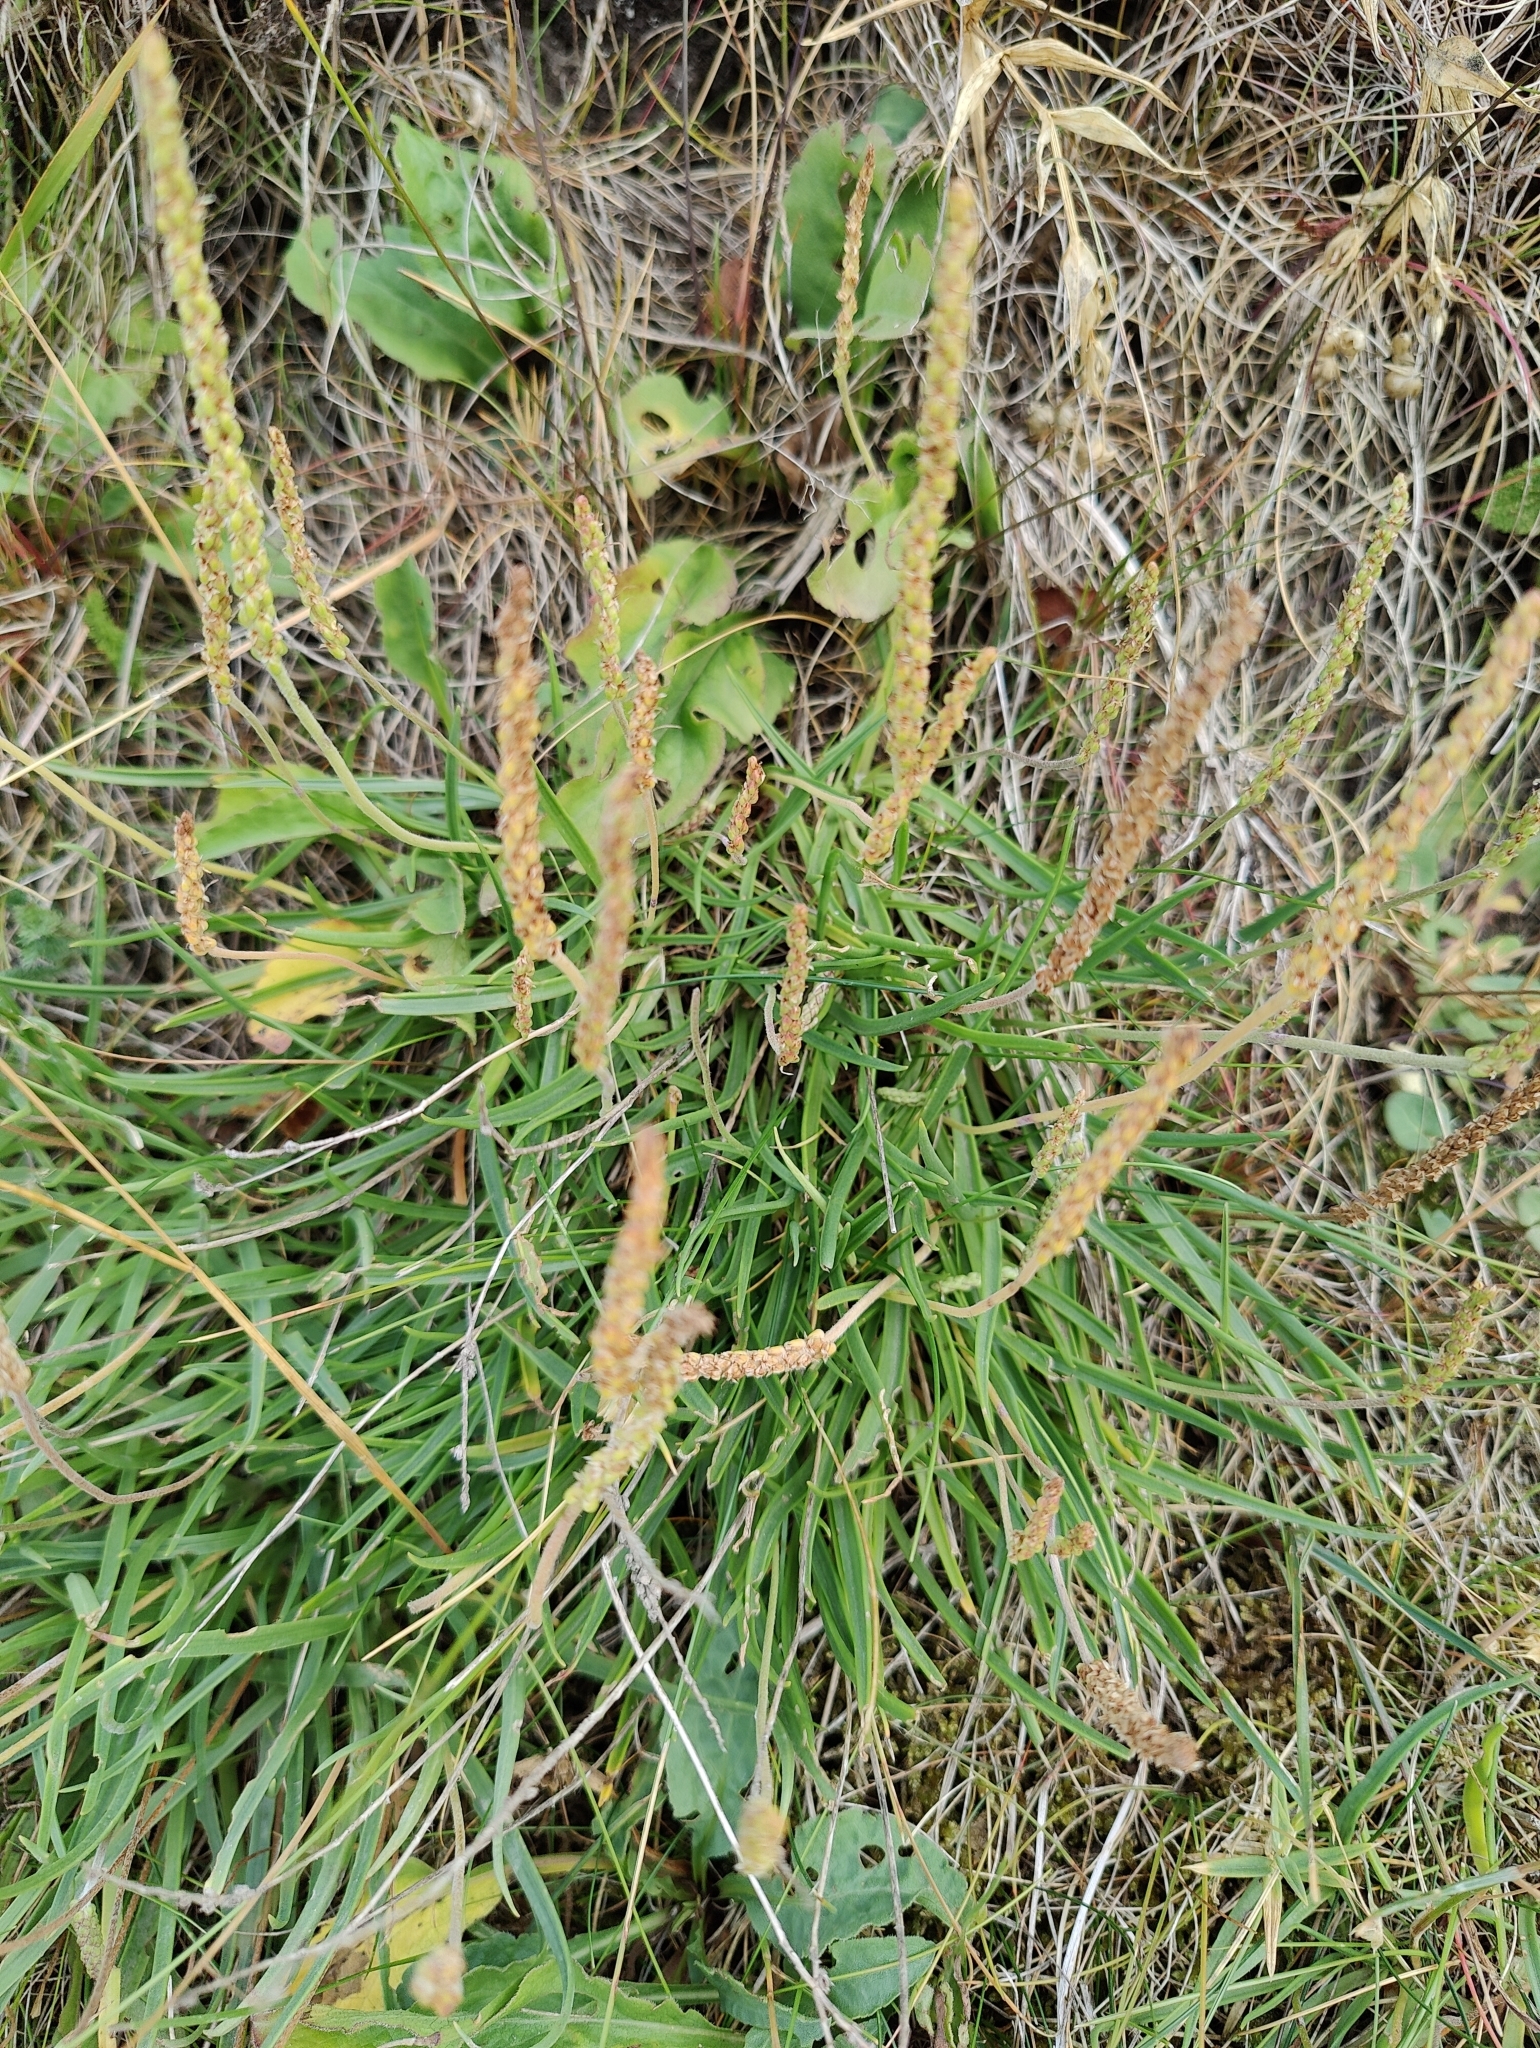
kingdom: Plantae
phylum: Tracheophyta
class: Magnoliopsida
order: Lamiales
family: Plantaginaceae
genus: Plantago
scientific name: Plantago maritima
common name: Sea plantain
